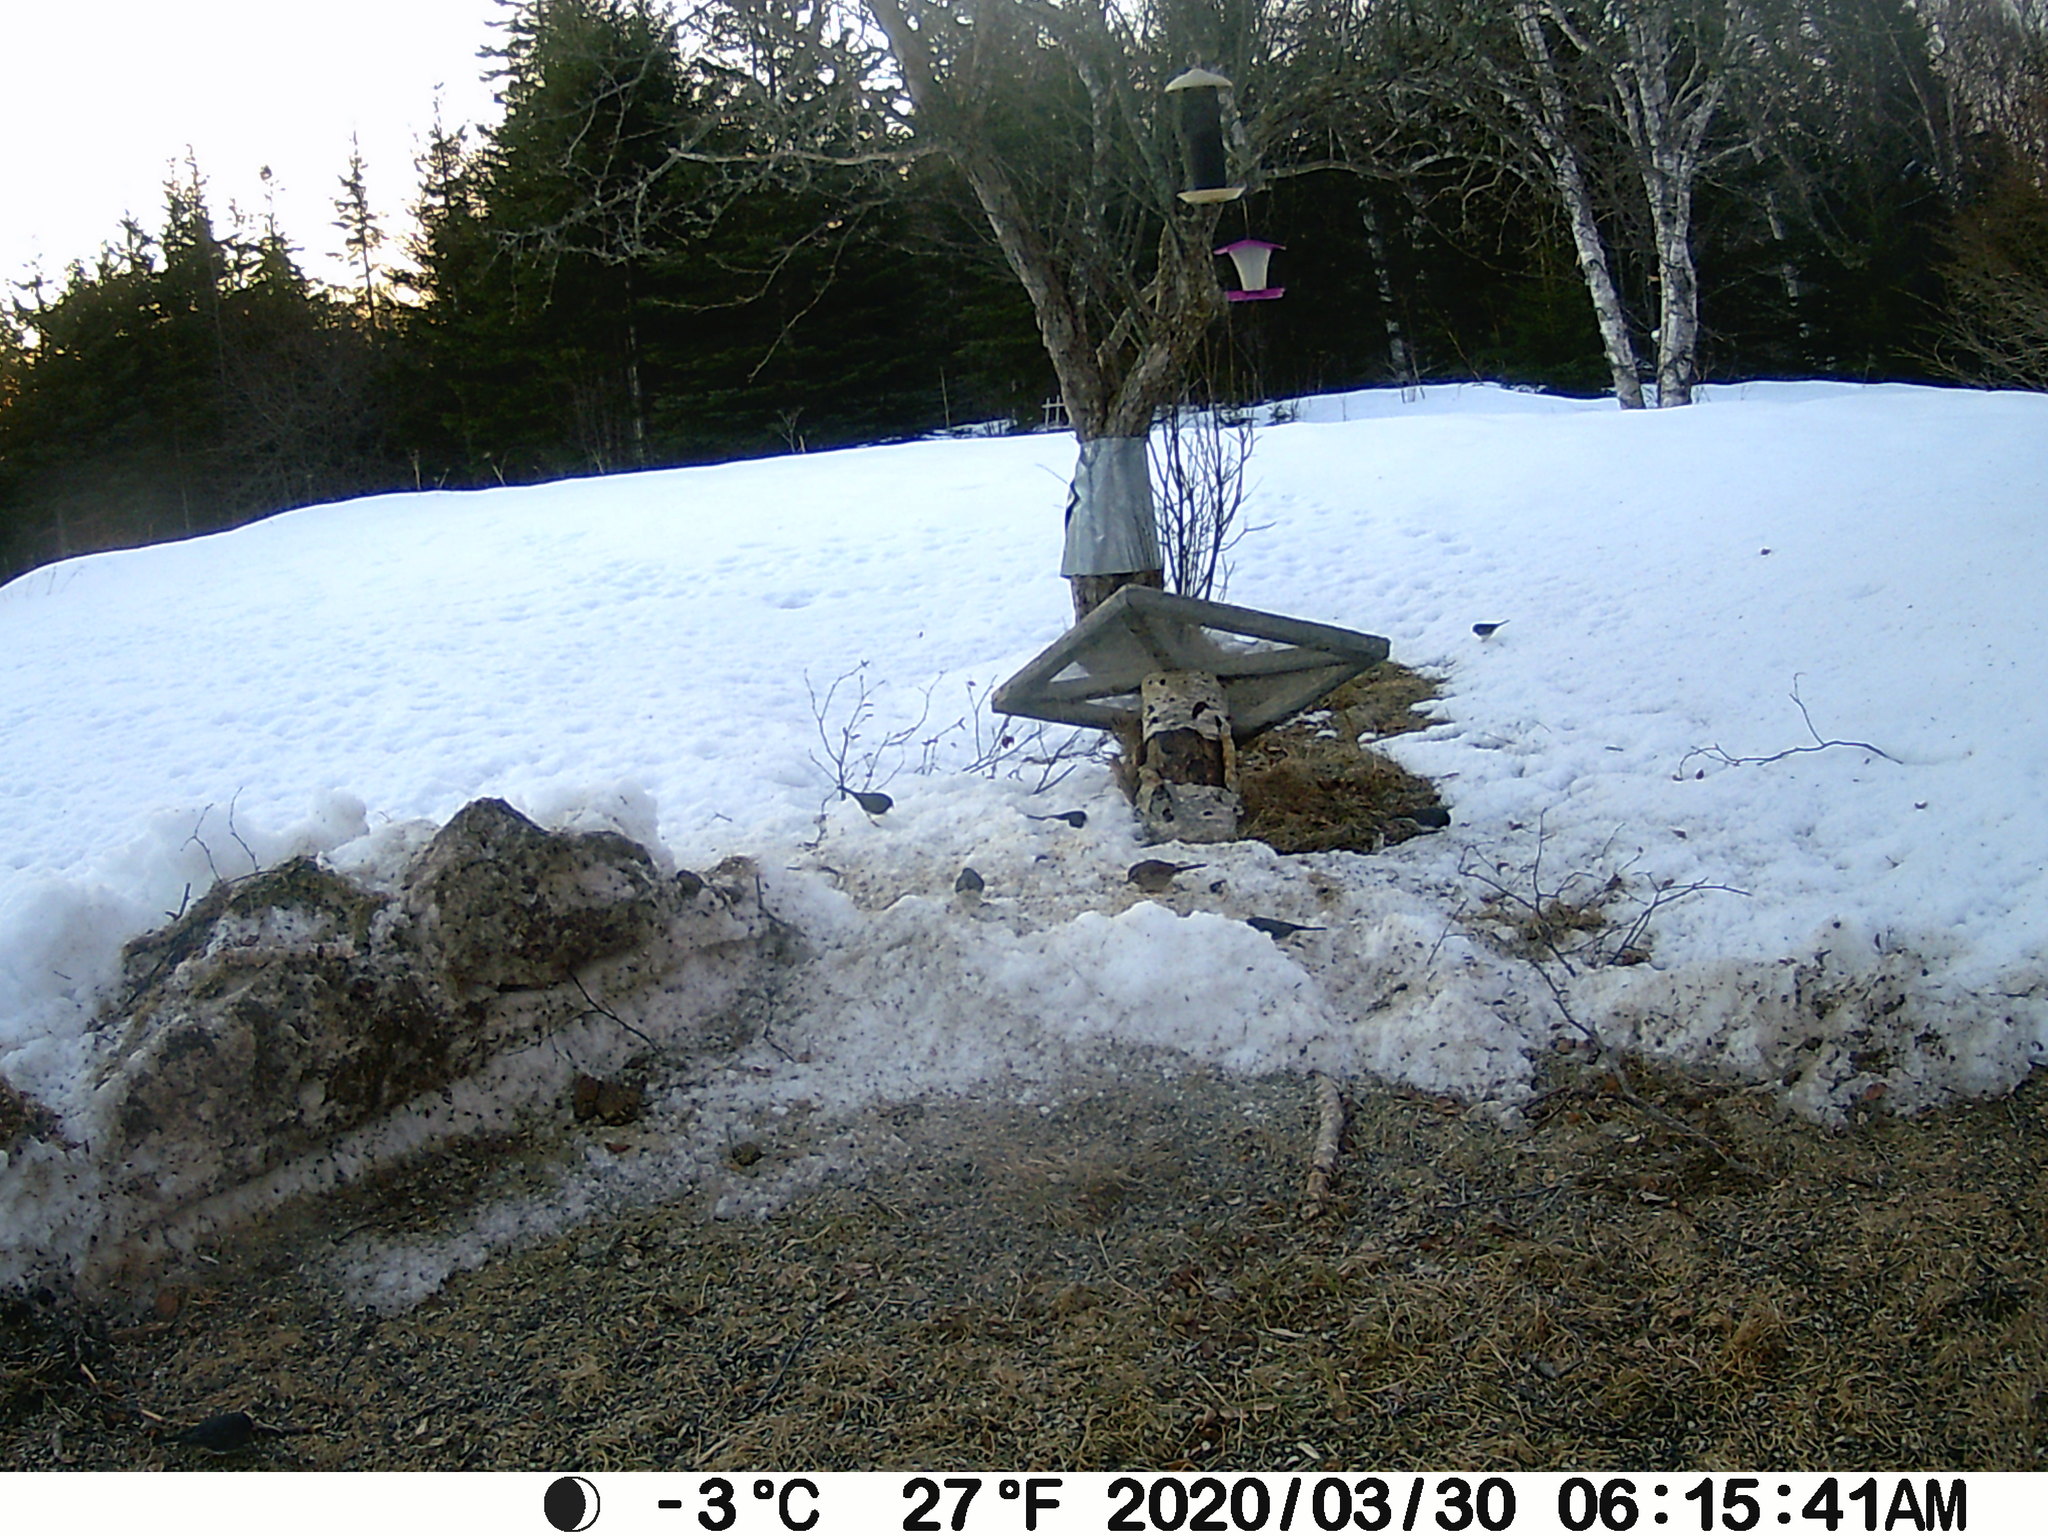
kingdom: Animalia
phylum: Chordata
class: Aves
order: Passeriformes
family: Passerellidae
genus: Junco
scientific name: Junco hyemalis
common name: Dark-eyed junco
